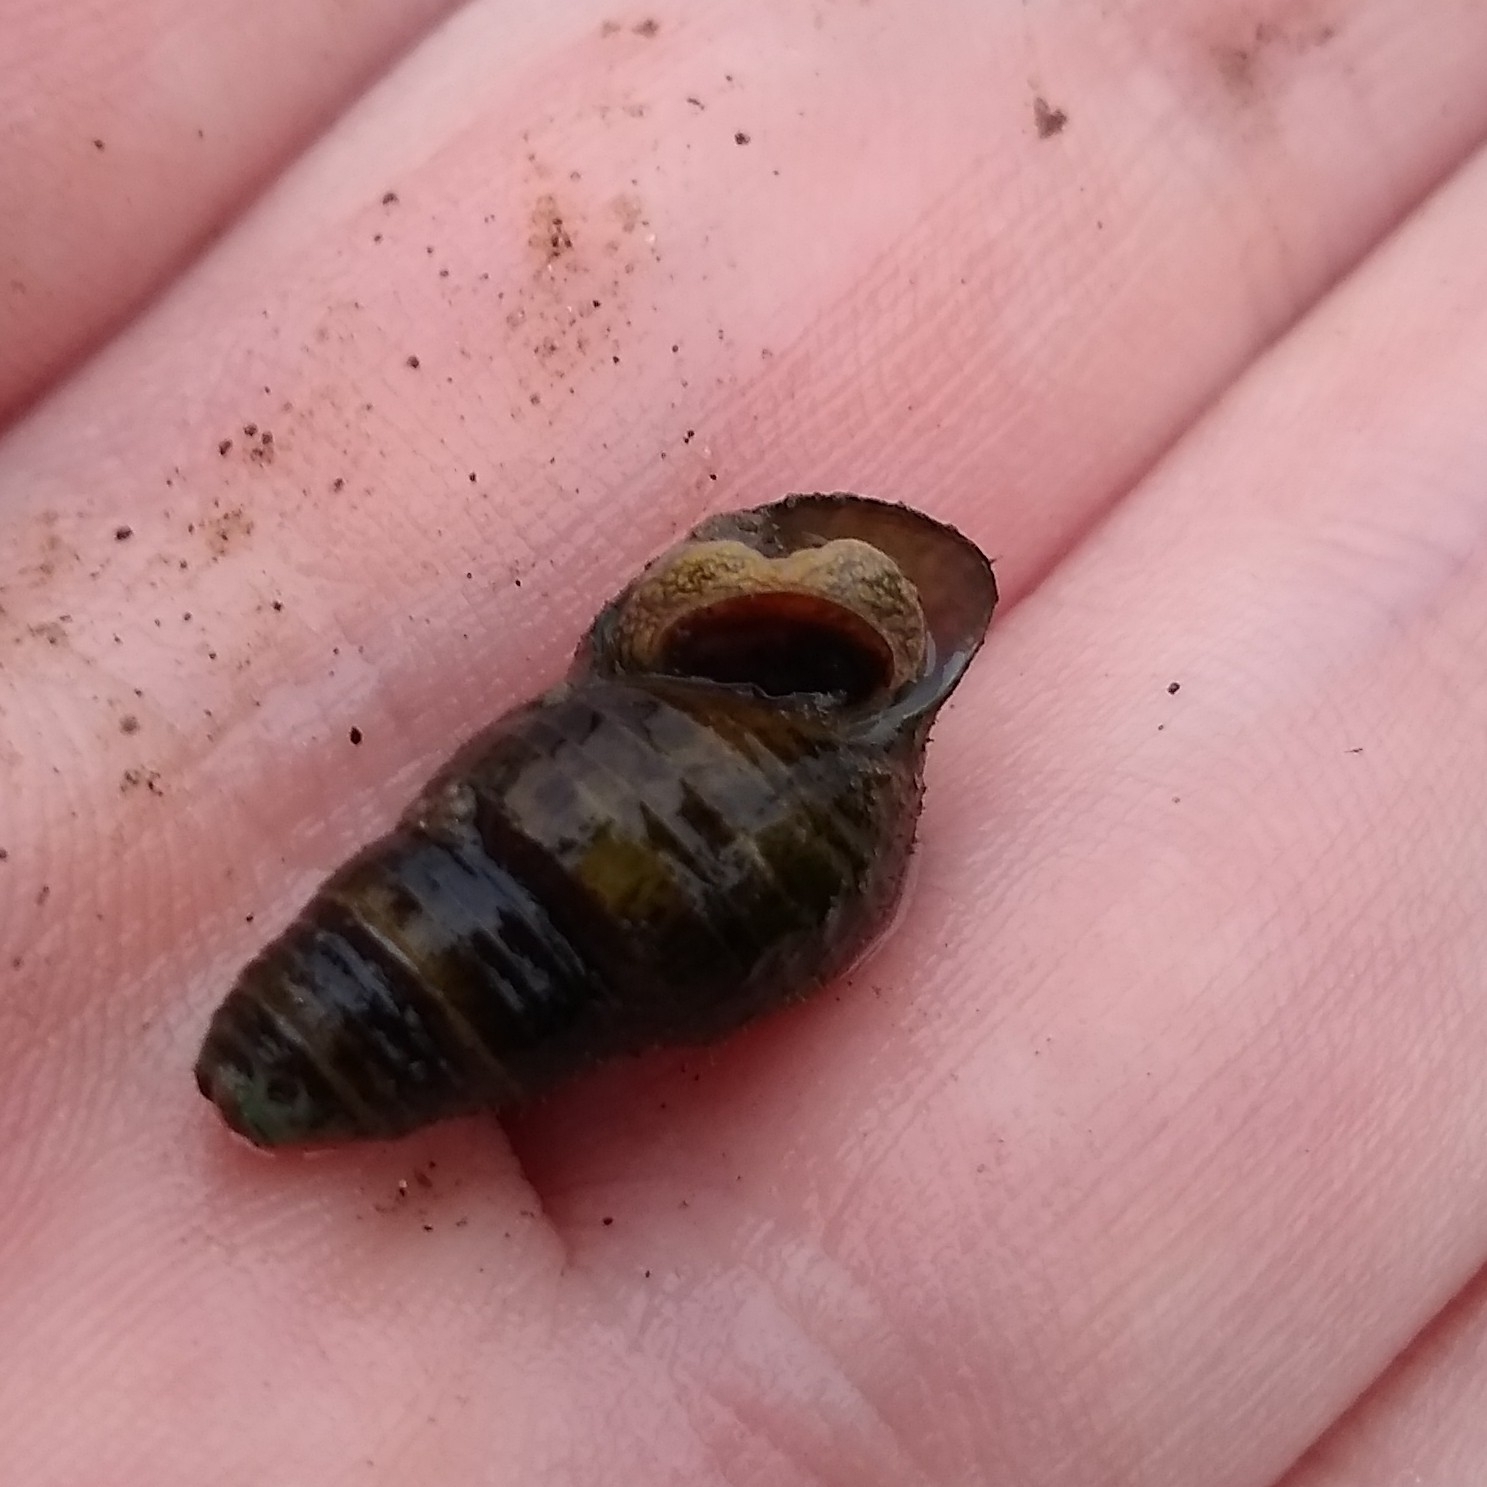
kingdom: Animalia
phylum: Mollusca
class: Gastropoda
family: Pleuroceridae
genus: Elimia
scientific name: Elimia virginica
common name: Piedmont elimia
